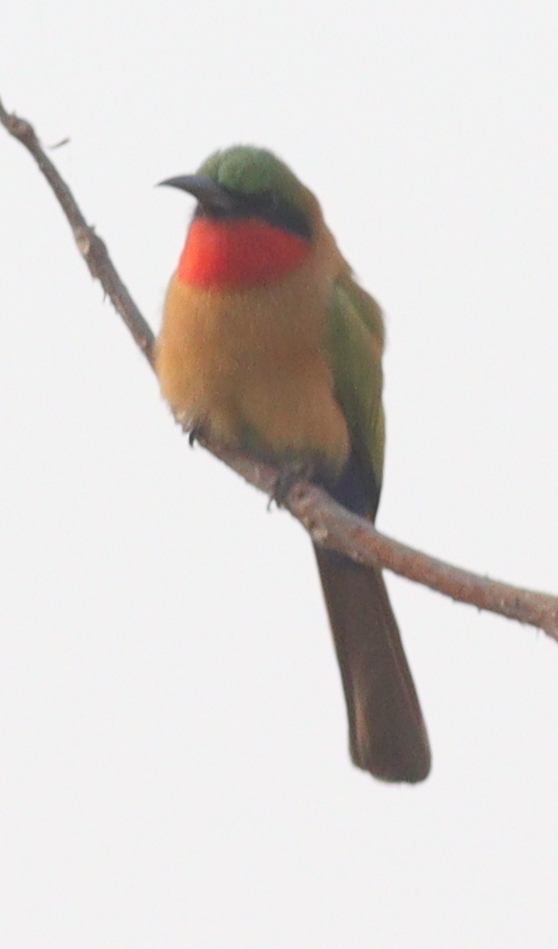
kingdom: Animalia
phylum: Chordata
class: Aves
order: Coraciiformes
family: Meropidae
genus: Merops
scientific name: Merops bulocki
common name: Red-throated bee-eater
